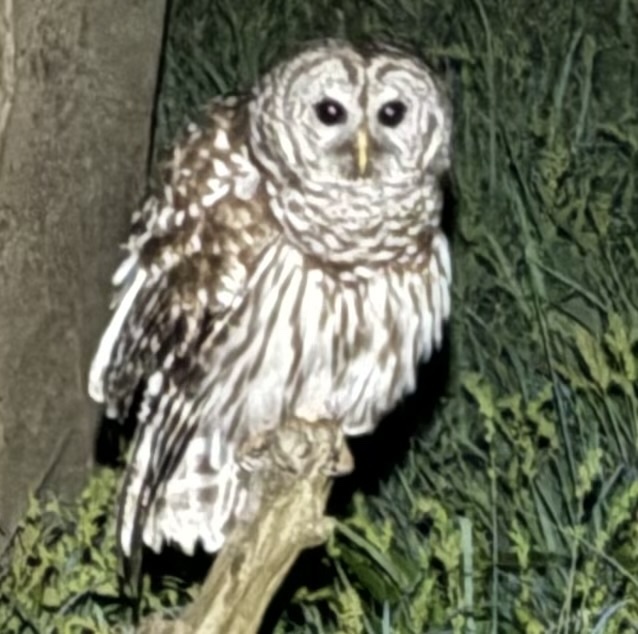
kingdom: Animalia
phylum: Chordata
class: Aves
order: Strigiformes
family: Strigidae
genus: Strix
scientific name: Strix varia
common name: Barred owl
